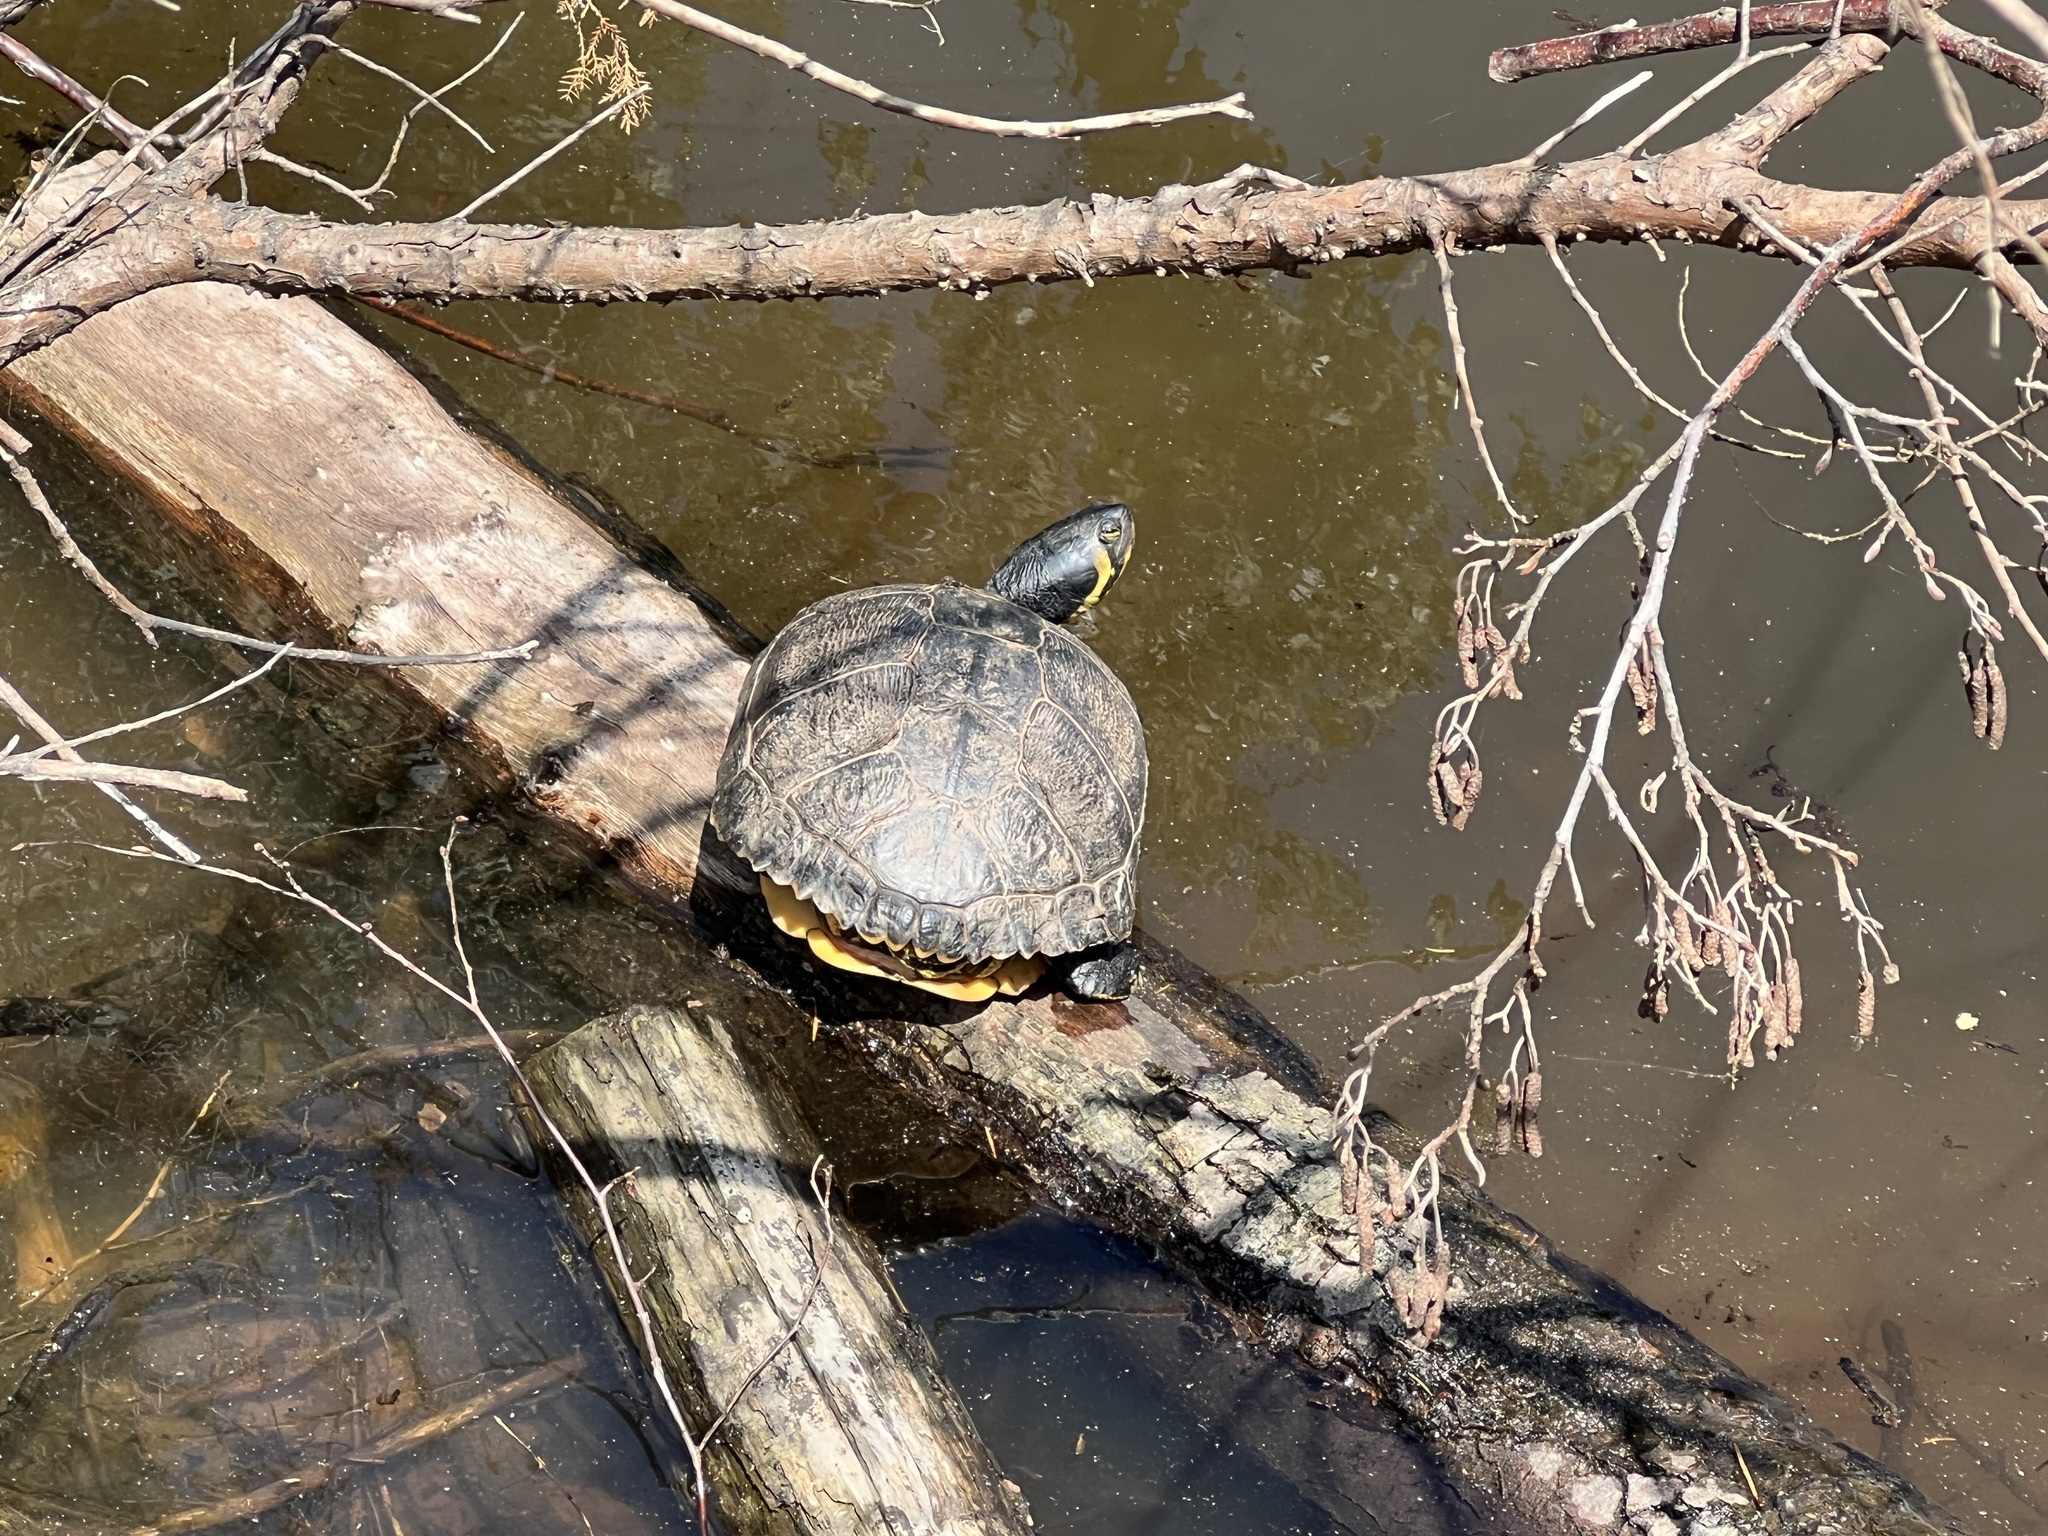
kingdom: Animalia
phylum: Chordata
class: Testudines
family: Emydidae
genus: Trachemys
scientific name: Trachemys scripta
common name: Slider
